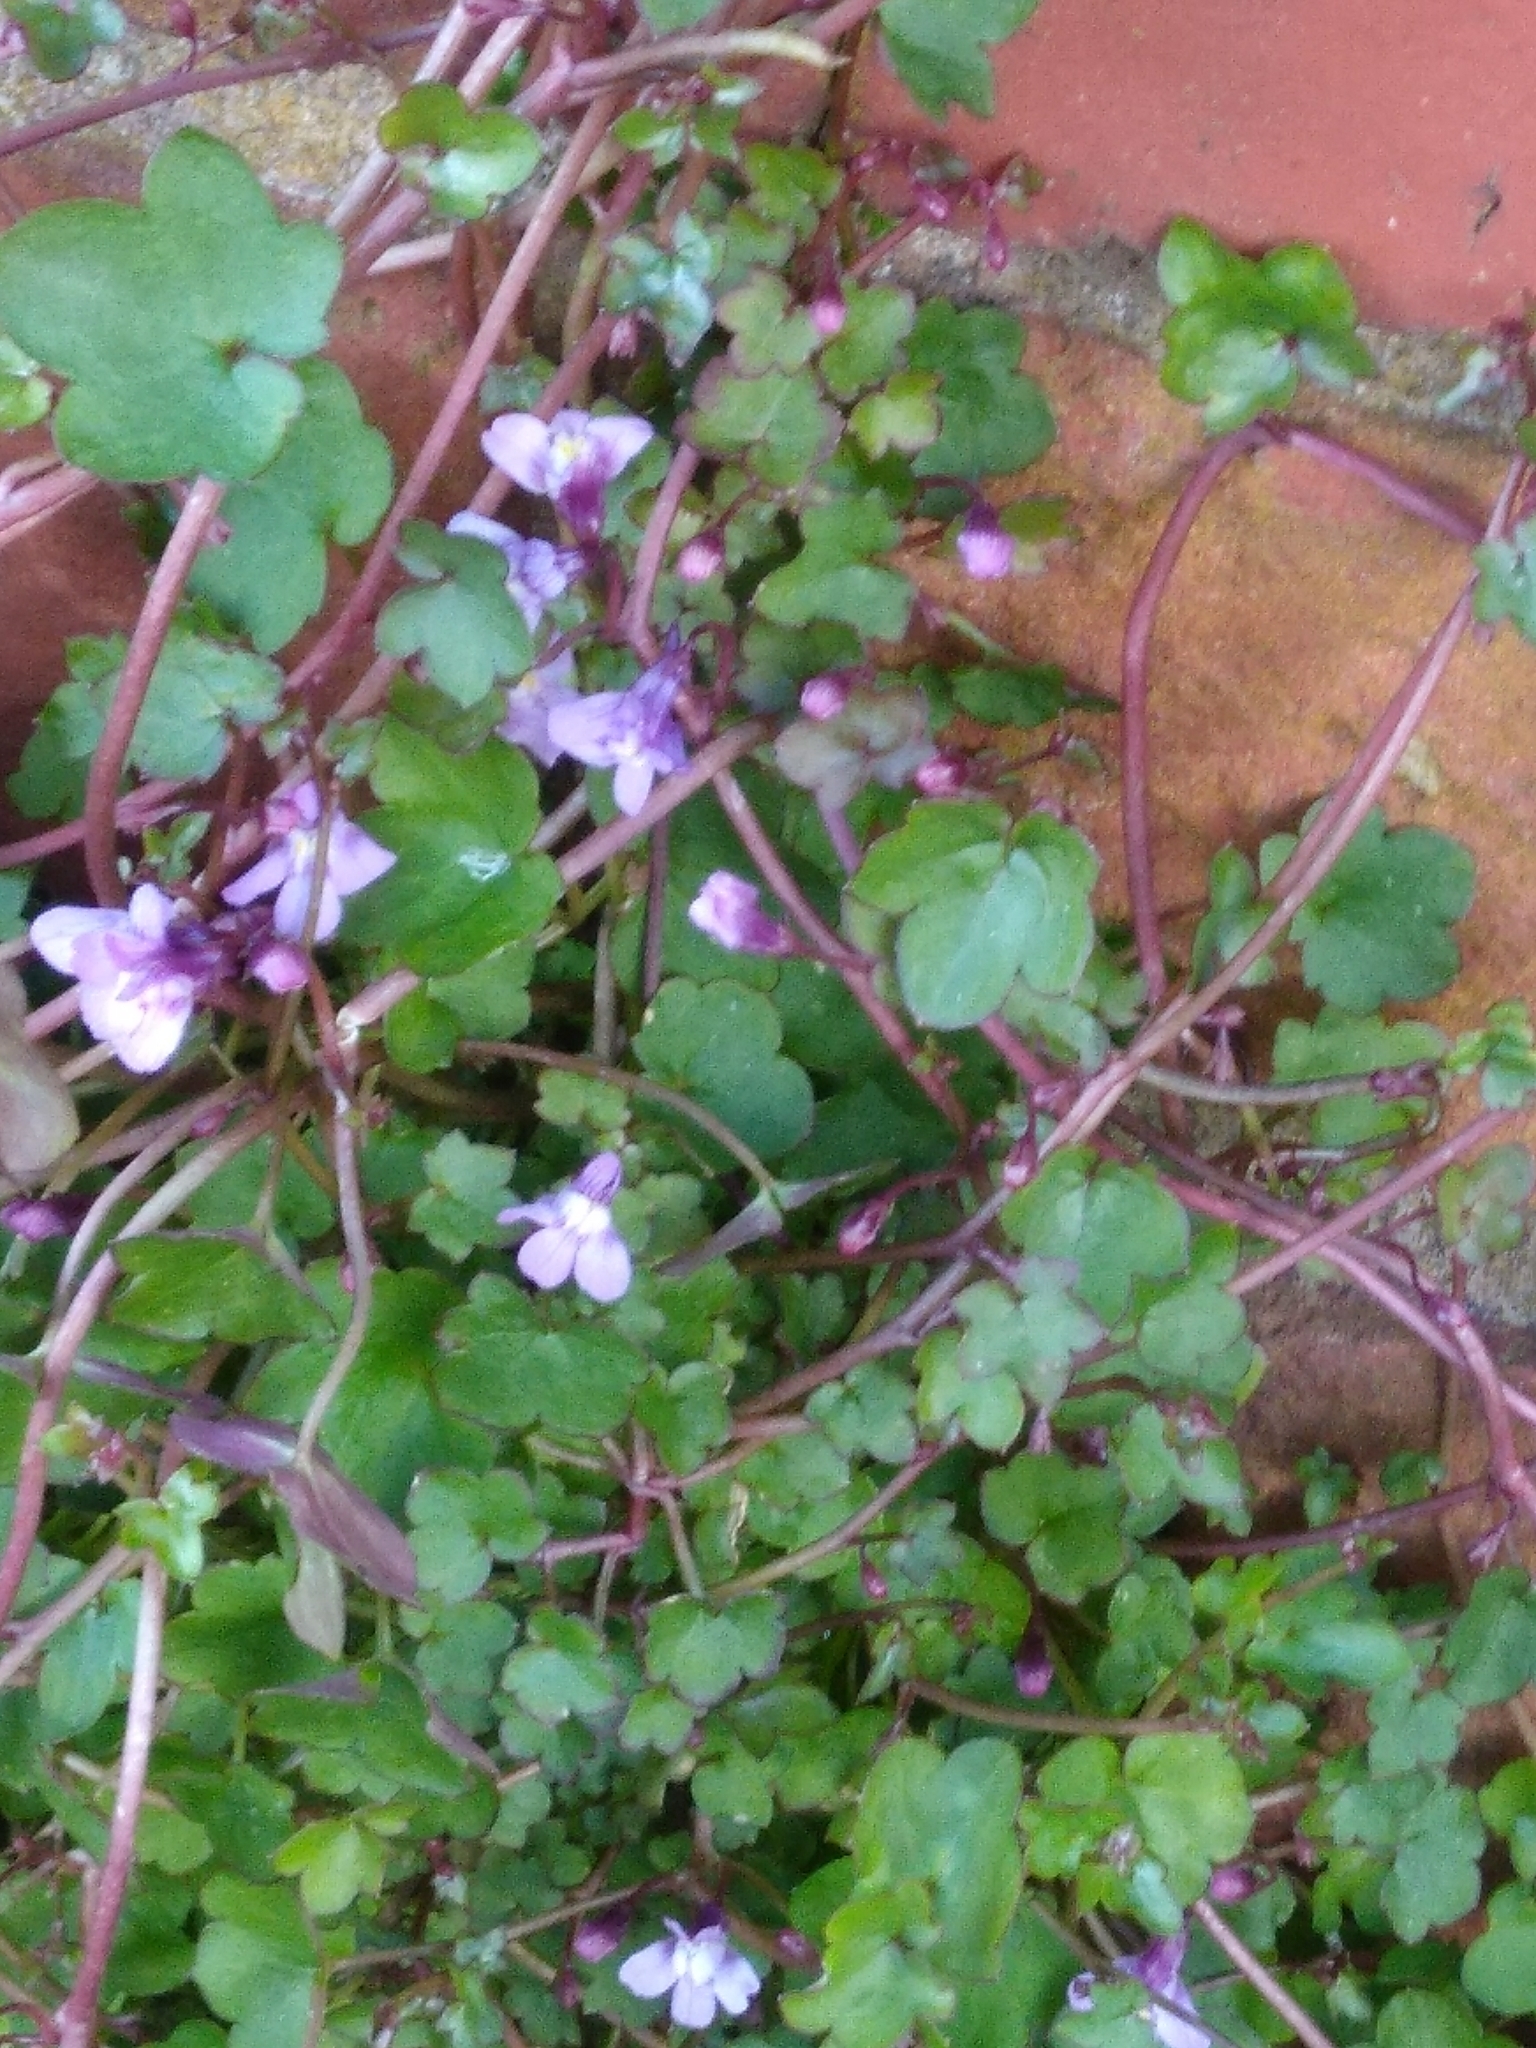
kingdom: Plantae
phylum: Tracheophyta
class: Magnoliopsida
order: Lamiales
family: Plantaginaceae
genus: Cymbalaria
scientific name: Cymbalaria muralis
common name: Ivy-leaved toadflax
